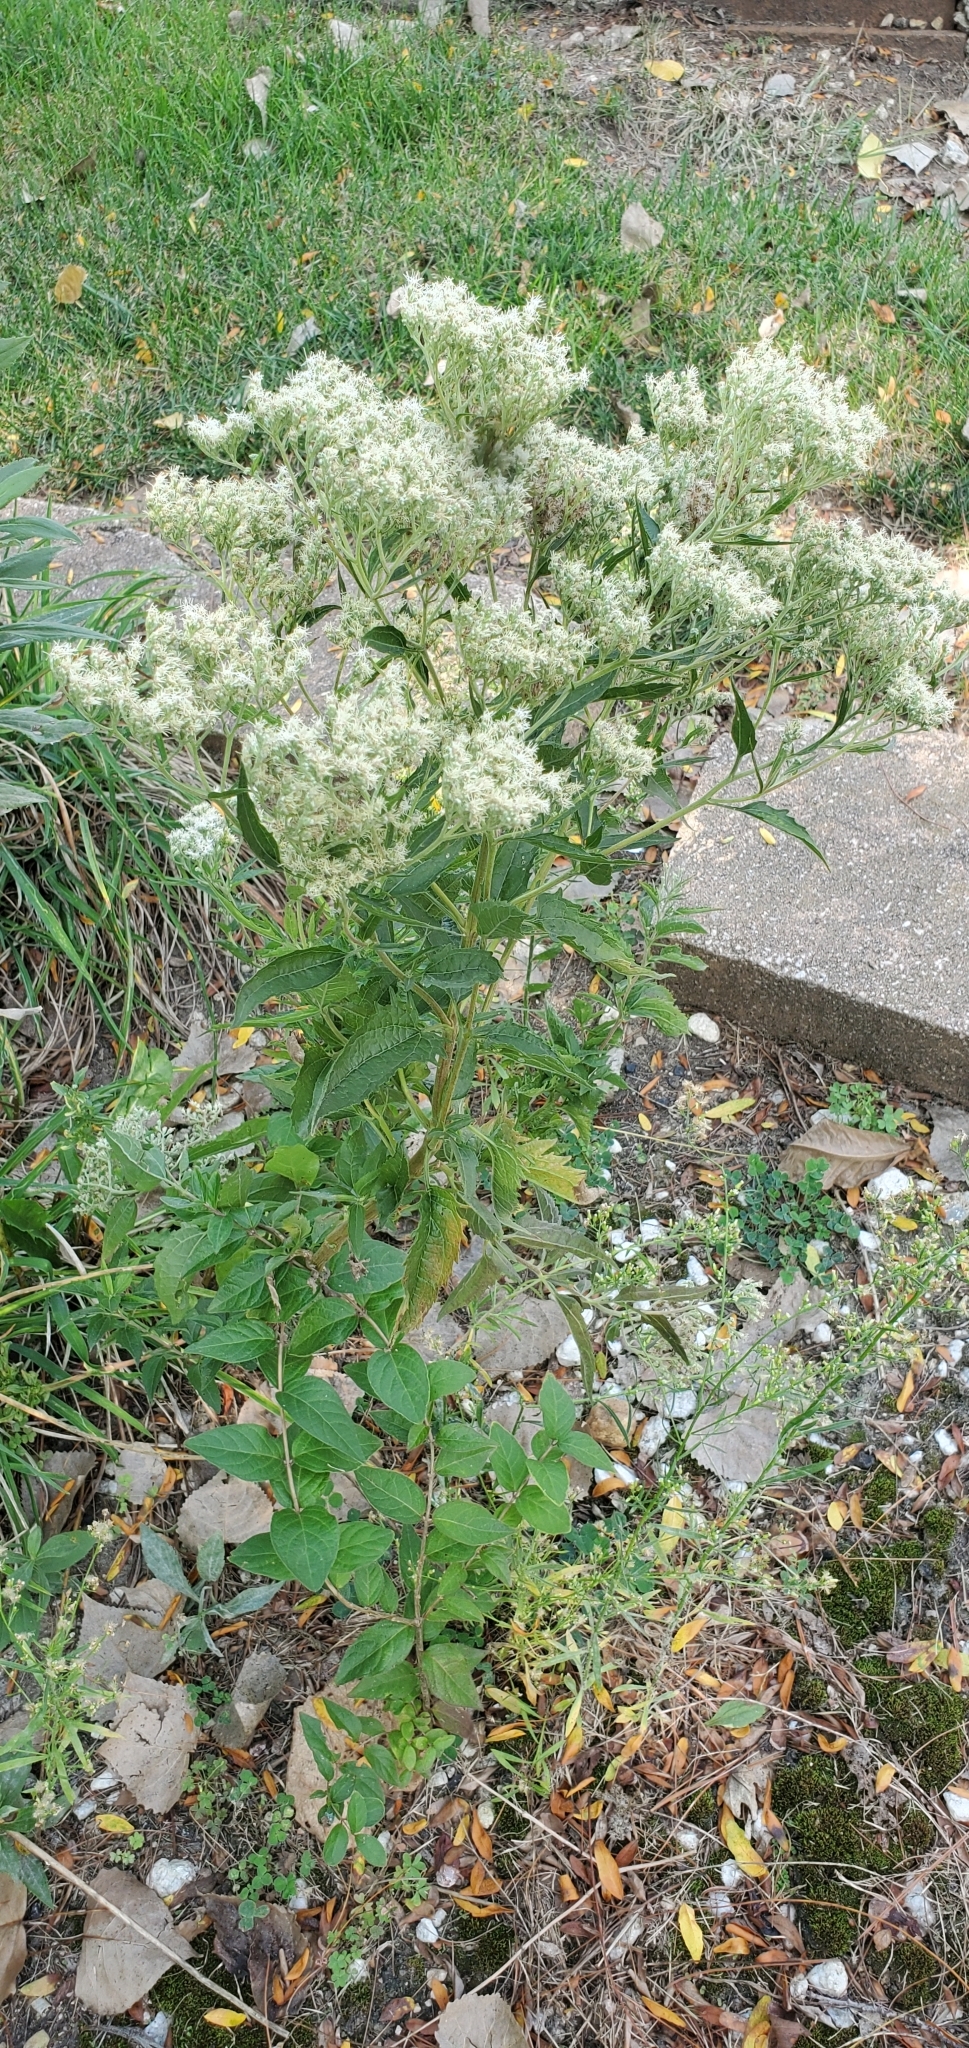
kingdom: Plantae
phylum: Tracheophyta
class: Magnoliopsida
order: Asterales
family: Asteraceae
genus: Eupatorium
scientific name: Eupatorium serotinum
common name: Late boneset
